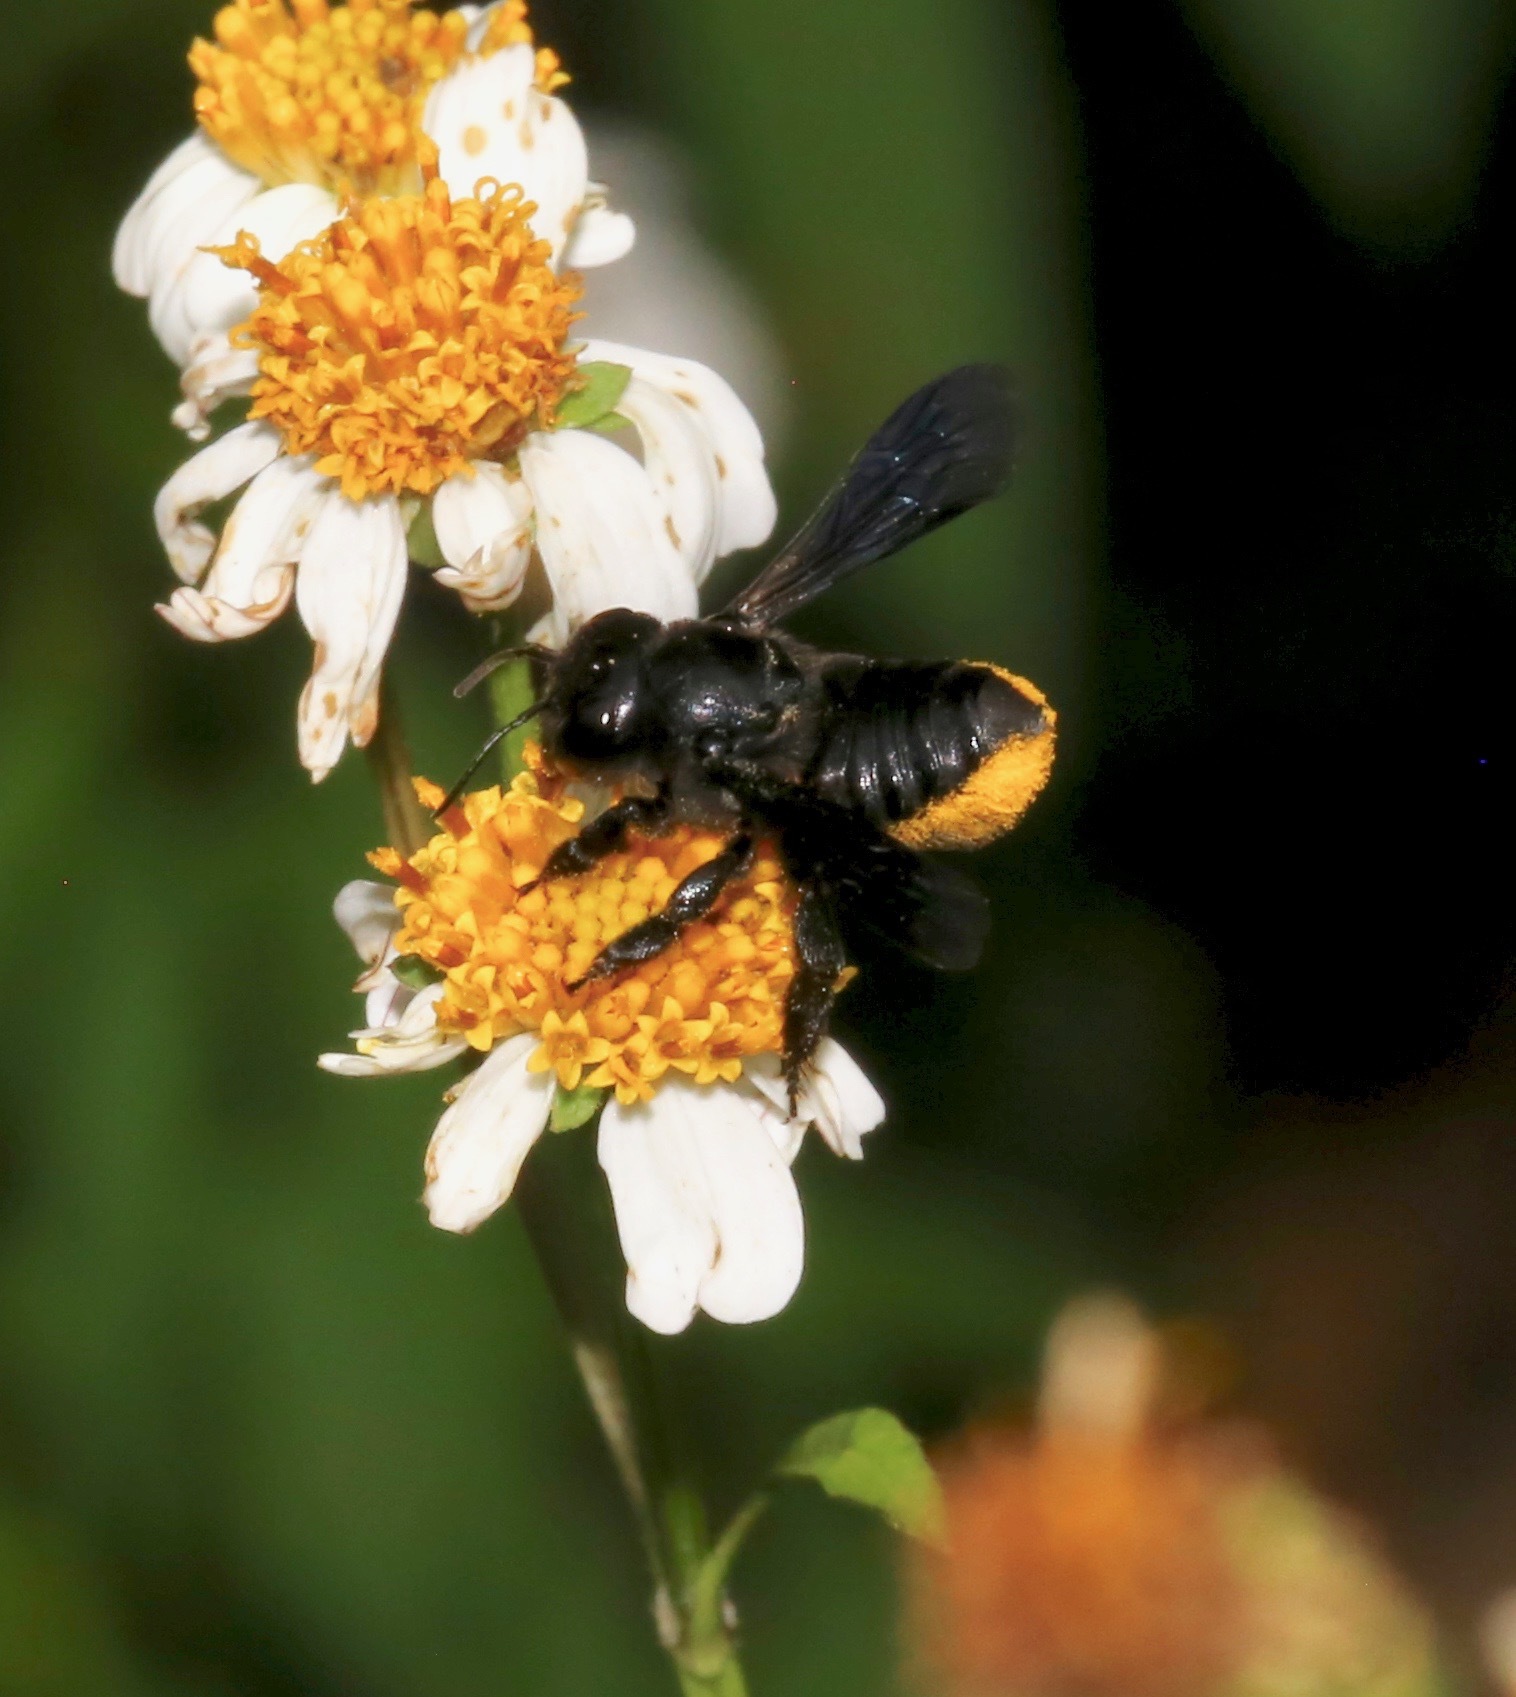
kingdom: Animalia
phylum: Arthropoda
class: Insecta
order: Hymenoptera
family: Megachilidae
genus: Megachile
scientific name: Megachile xylocopoides
